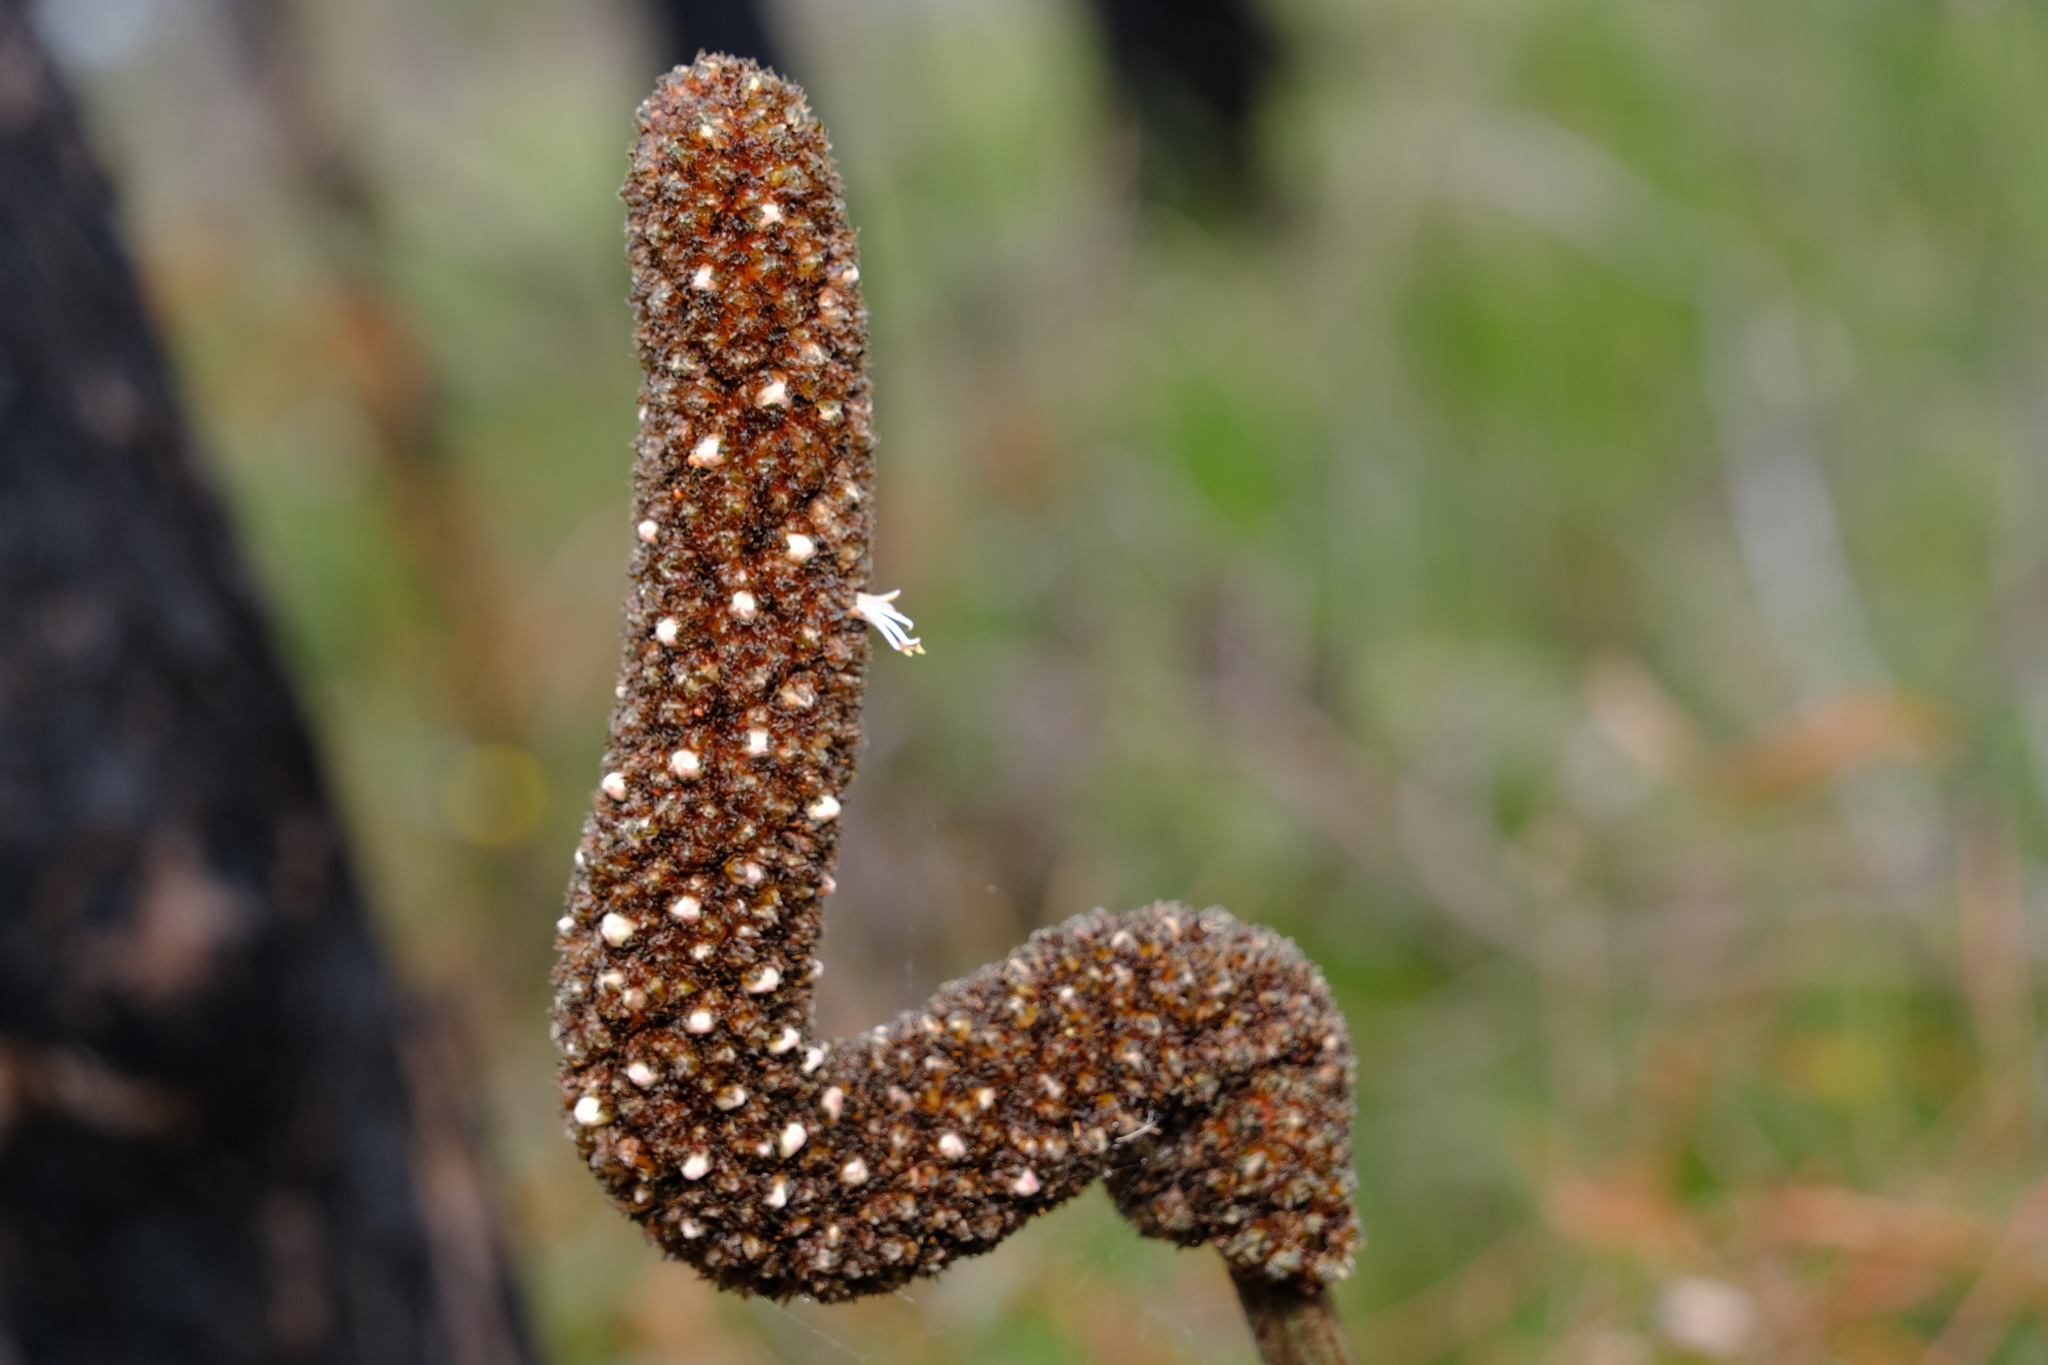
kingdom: Plantae
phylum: Tracheophyta
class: Liliopsida
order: Asparagales
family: Asphodelaceae
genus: Xanthorrhoea
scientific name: Xanthorrhoea minor
